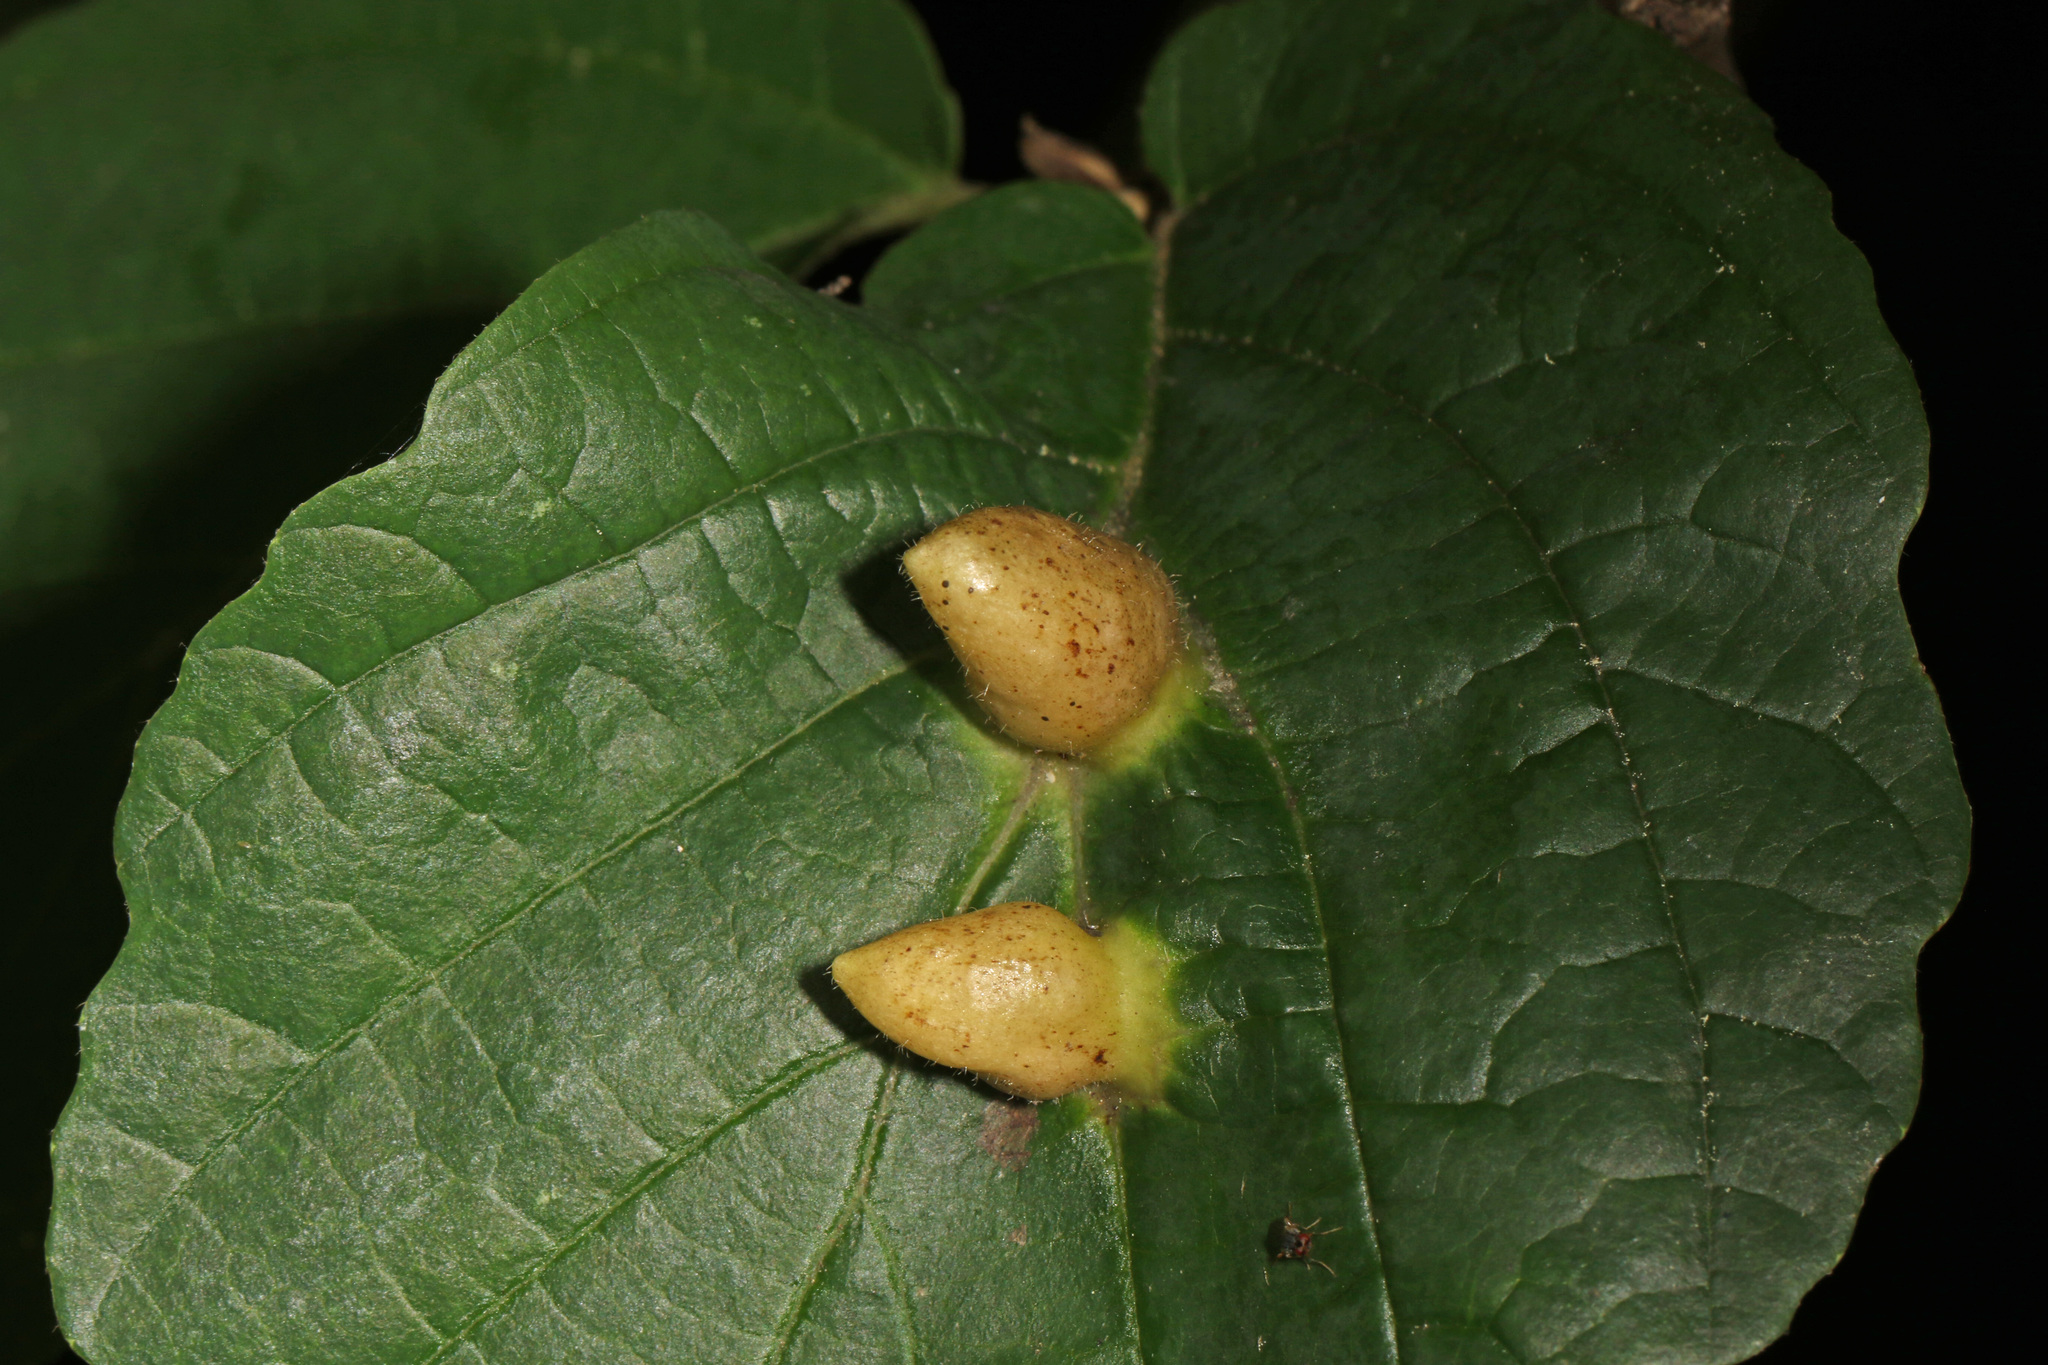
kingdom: Animalia
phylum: Arthropoda
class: Insecta
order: Hemiptera
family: Aphididae
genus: Hormaphis
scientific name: Hormaphis hamamelidis
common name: Witch-hazel cone gall aphid
